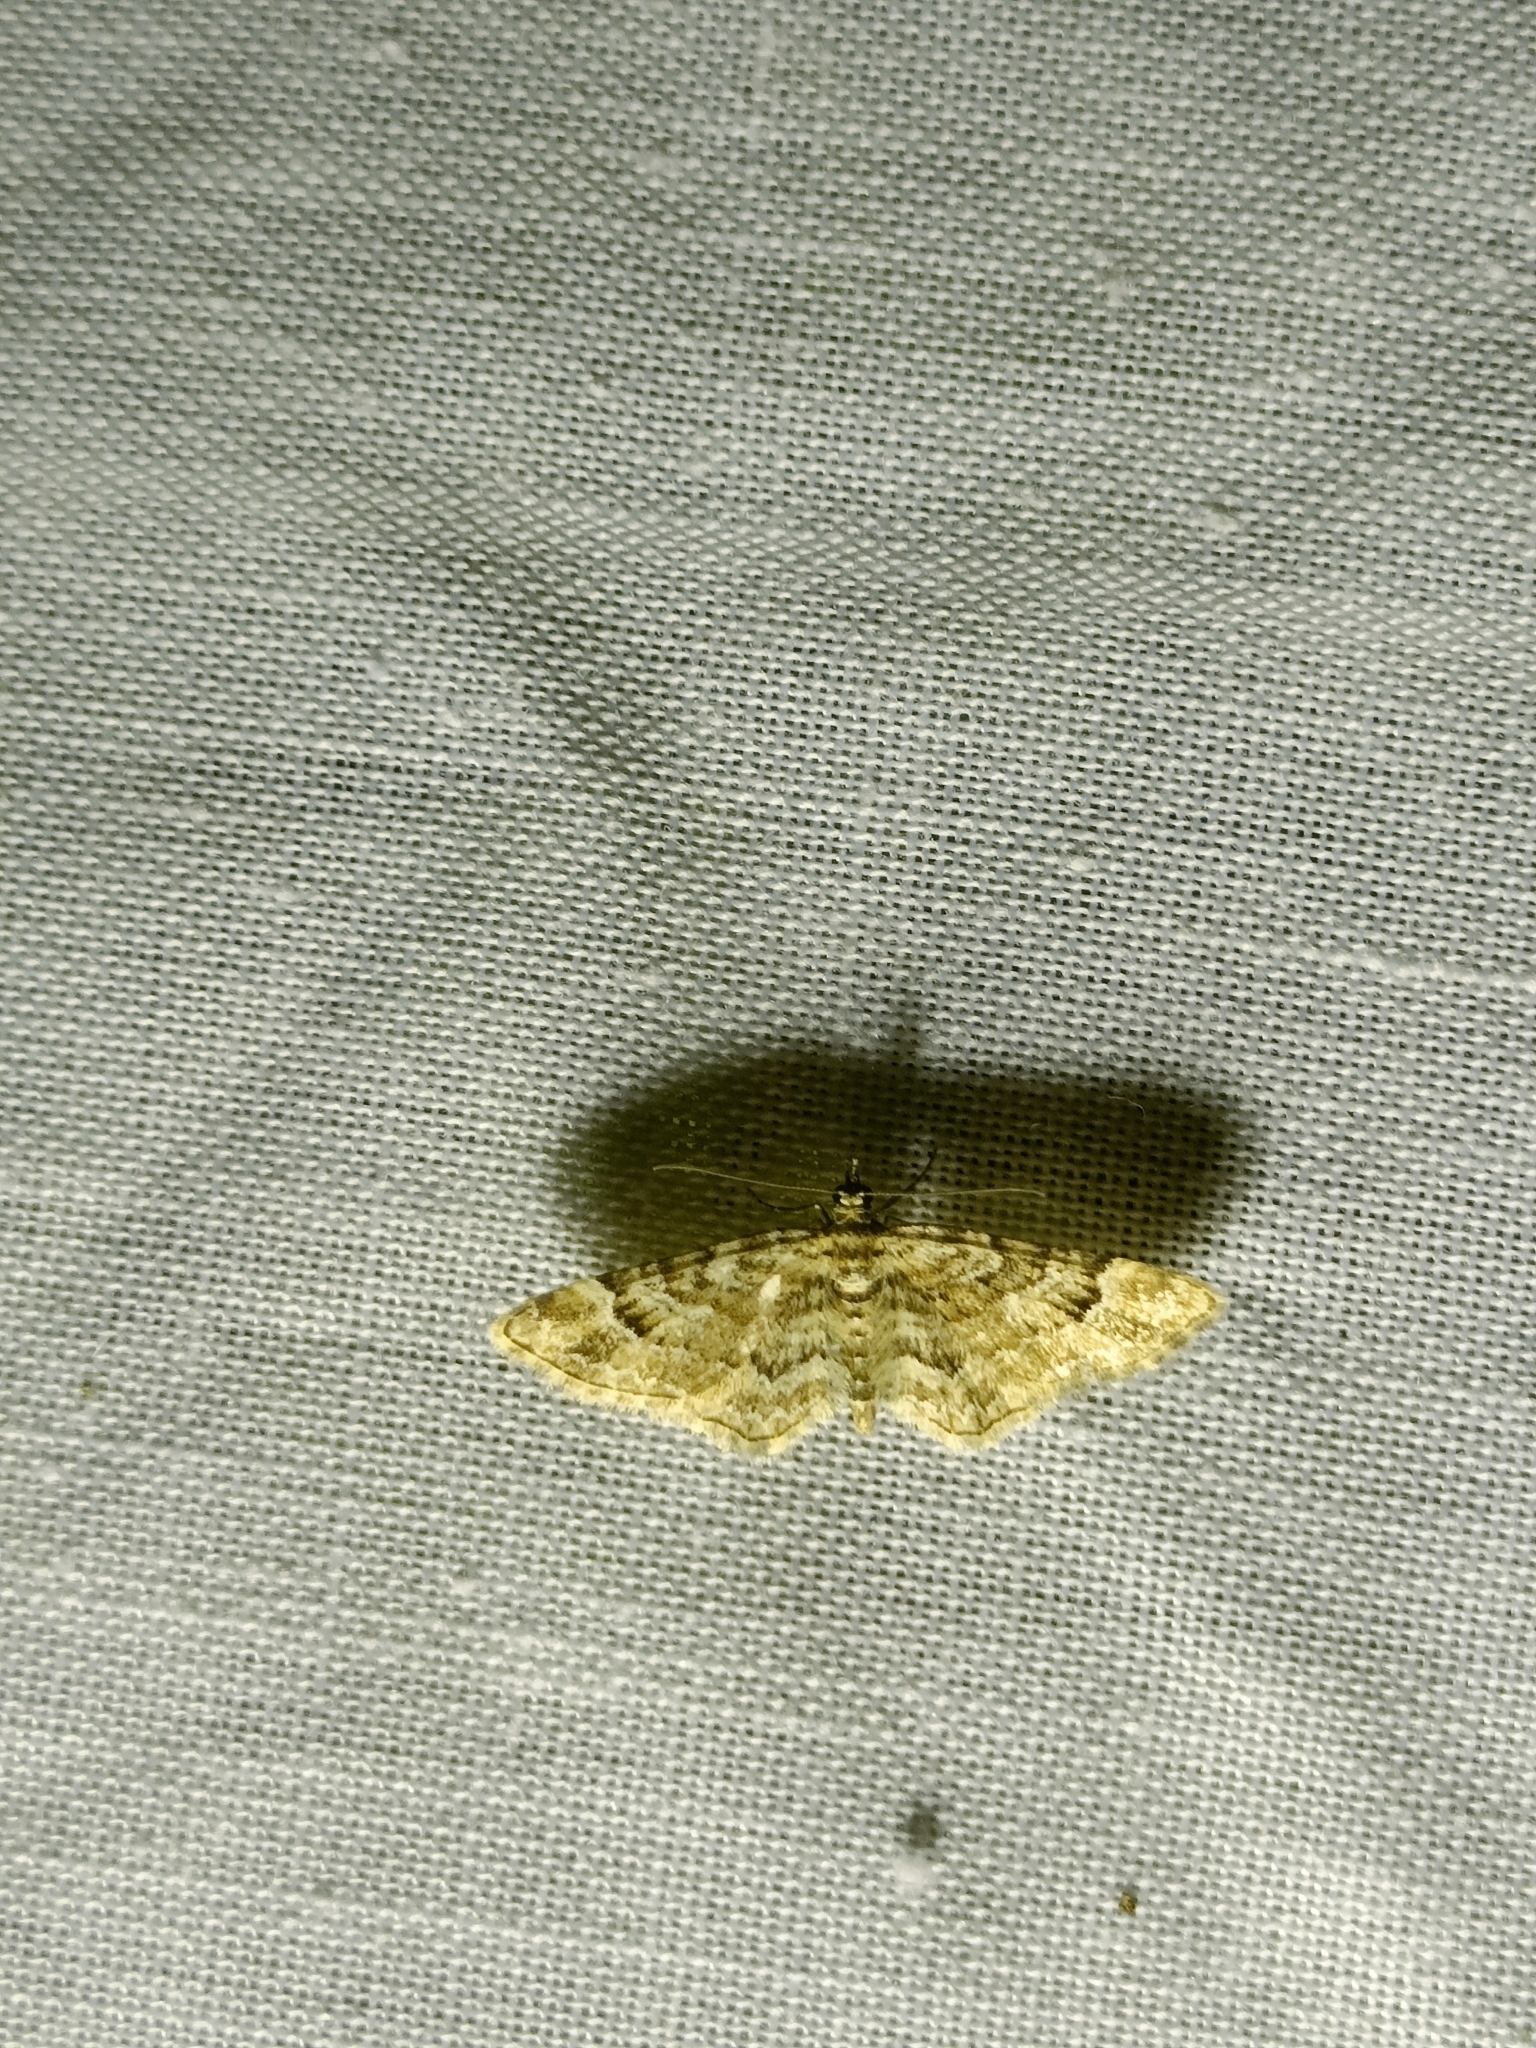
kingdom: Animalia
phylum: Arthropoda
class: Insecta
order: Lepidoptera
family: Geometridae
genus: Gymnoscelis
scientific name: Gymnoscelis rufifasciata
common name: Double-striped pug
